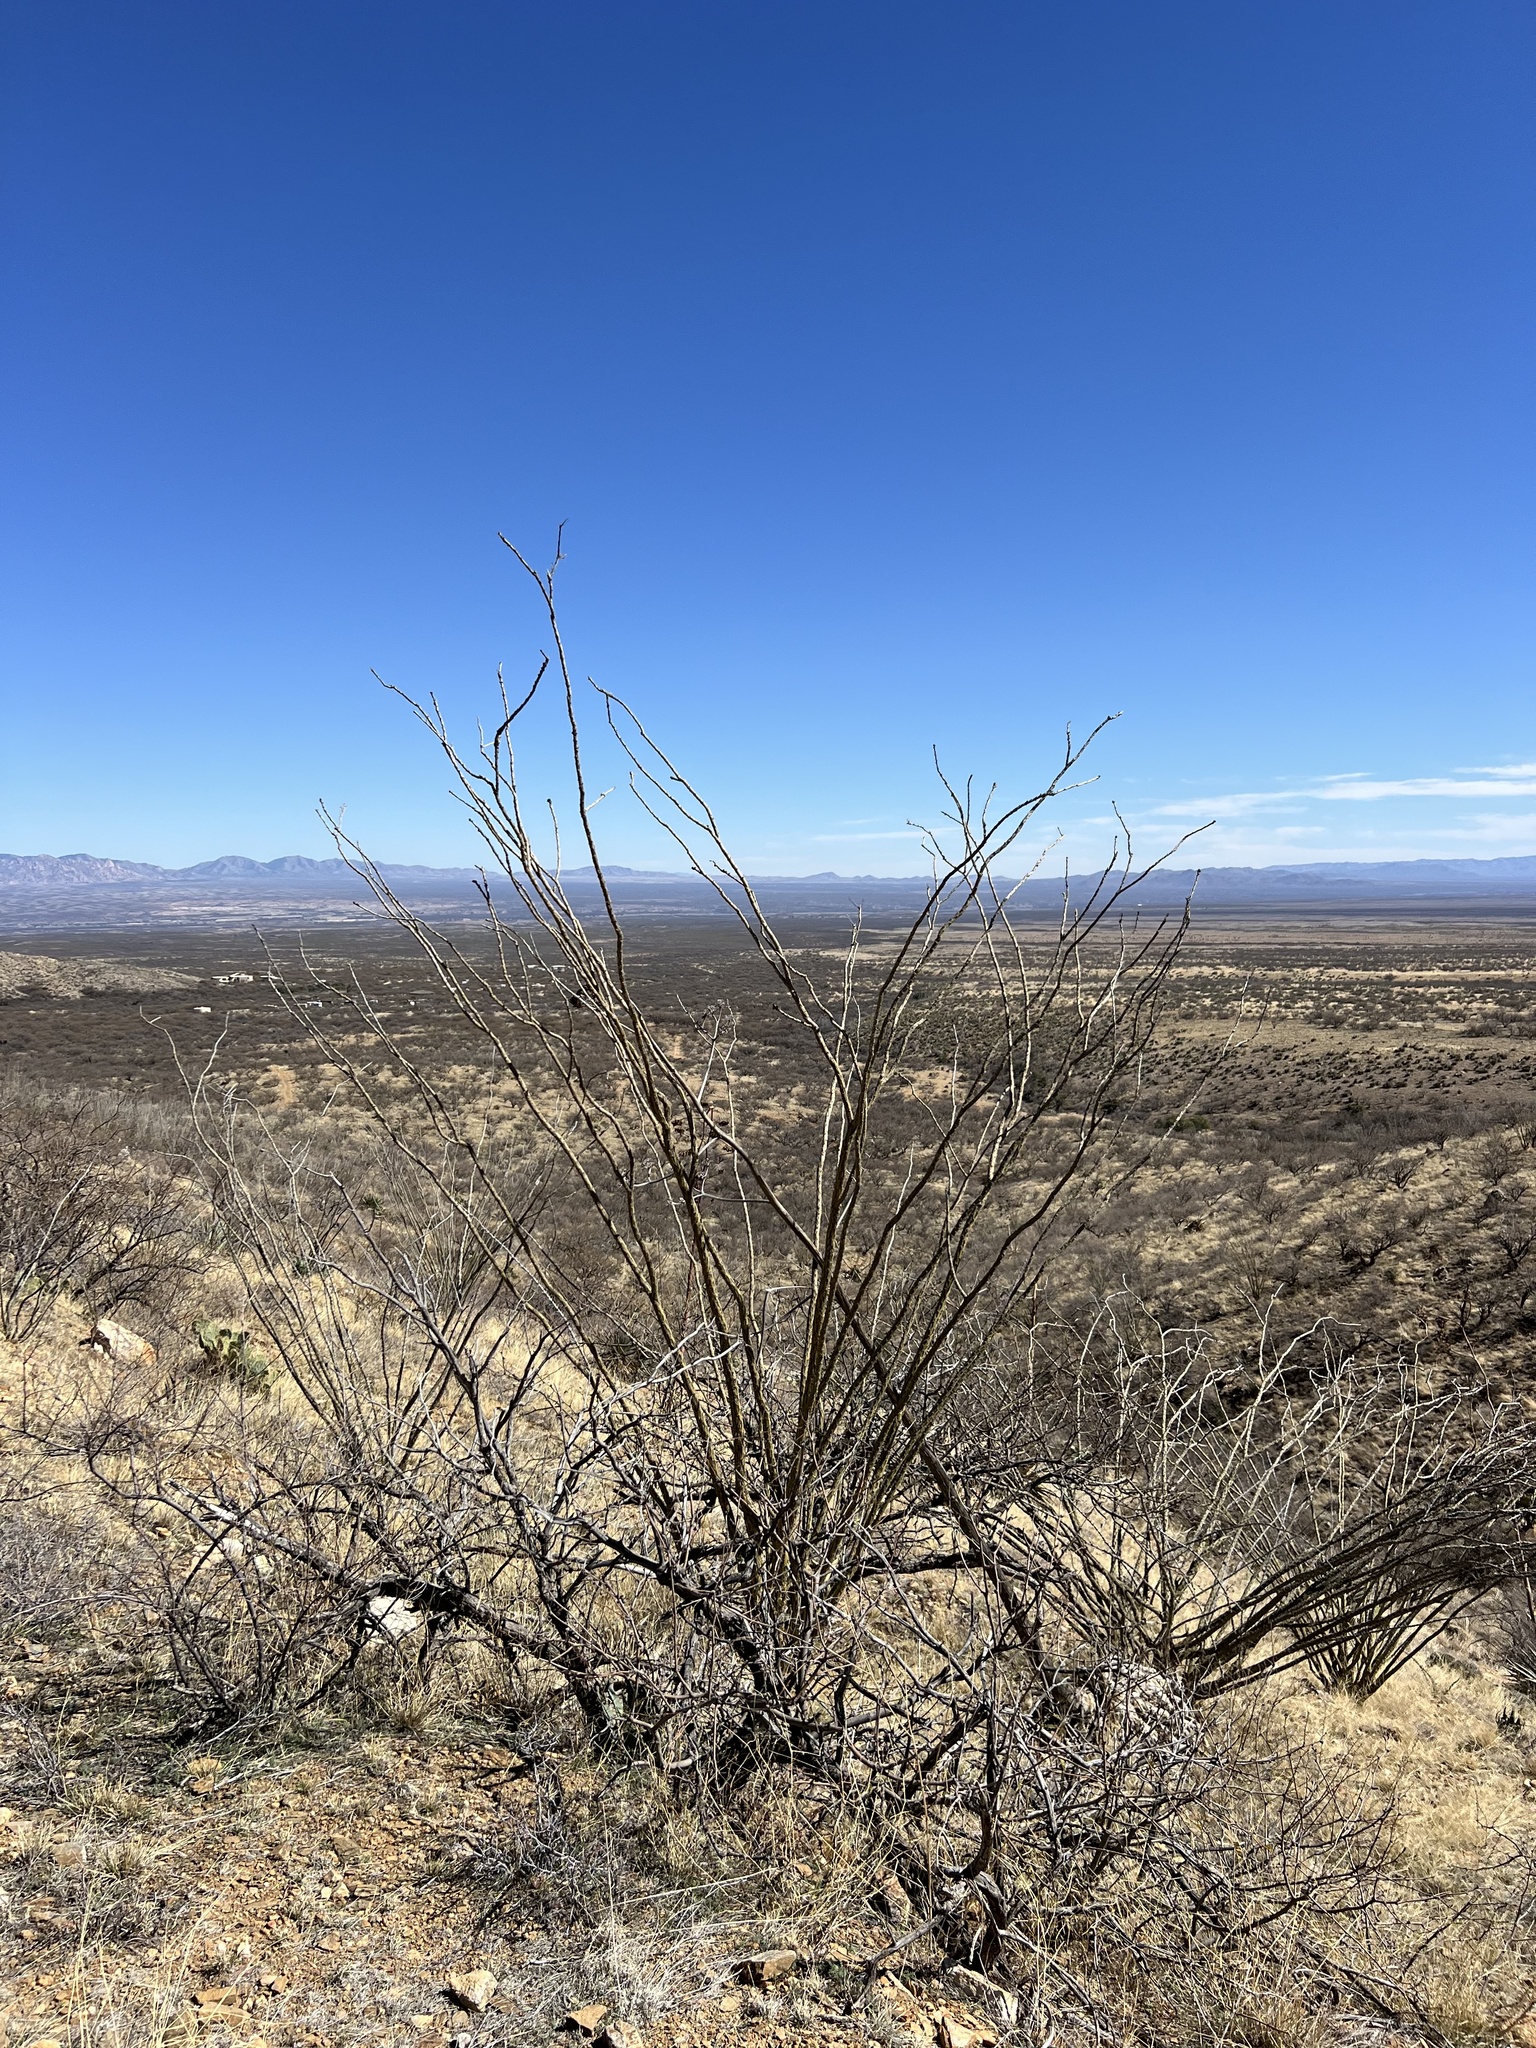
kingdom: Plantae
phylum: Tracheophyta
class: Magnoliopsida
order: Ericales
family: Fouquieriaceae
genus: Fouquieria
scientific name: Fouquieria splendens
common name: Vine-cactus
